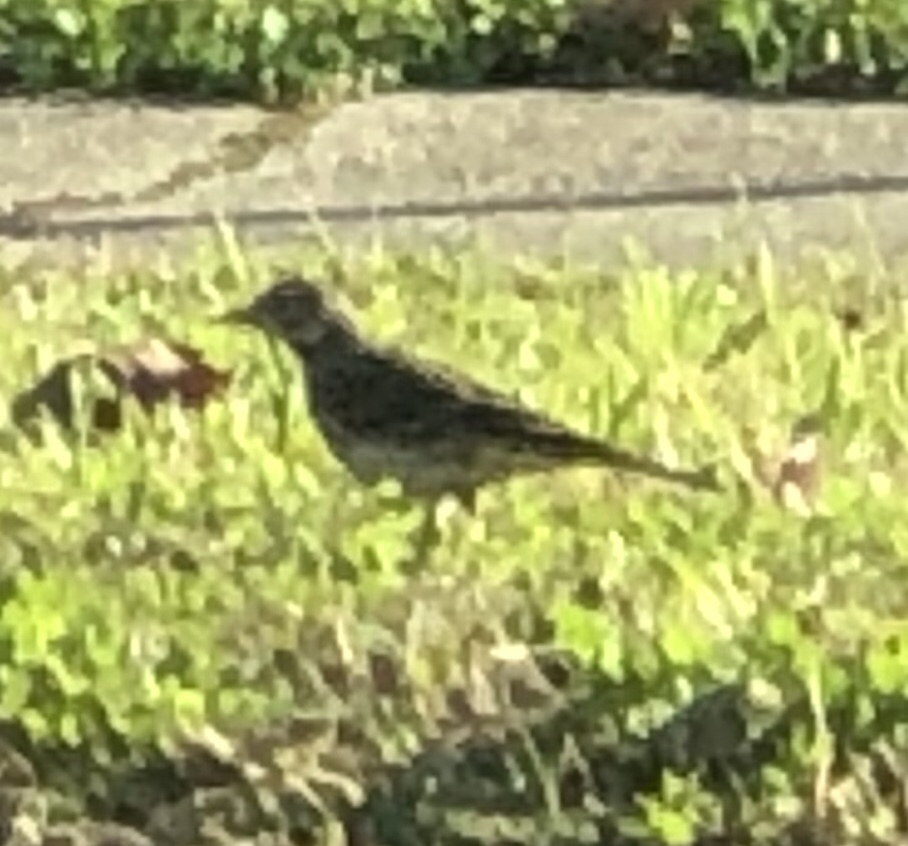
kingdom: Animalia
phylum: Chordata
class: Aves
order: Passeriformes
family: Motacillidae
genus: Anthus
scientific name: Anthus rubescens
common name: Buff-bellied pipit
